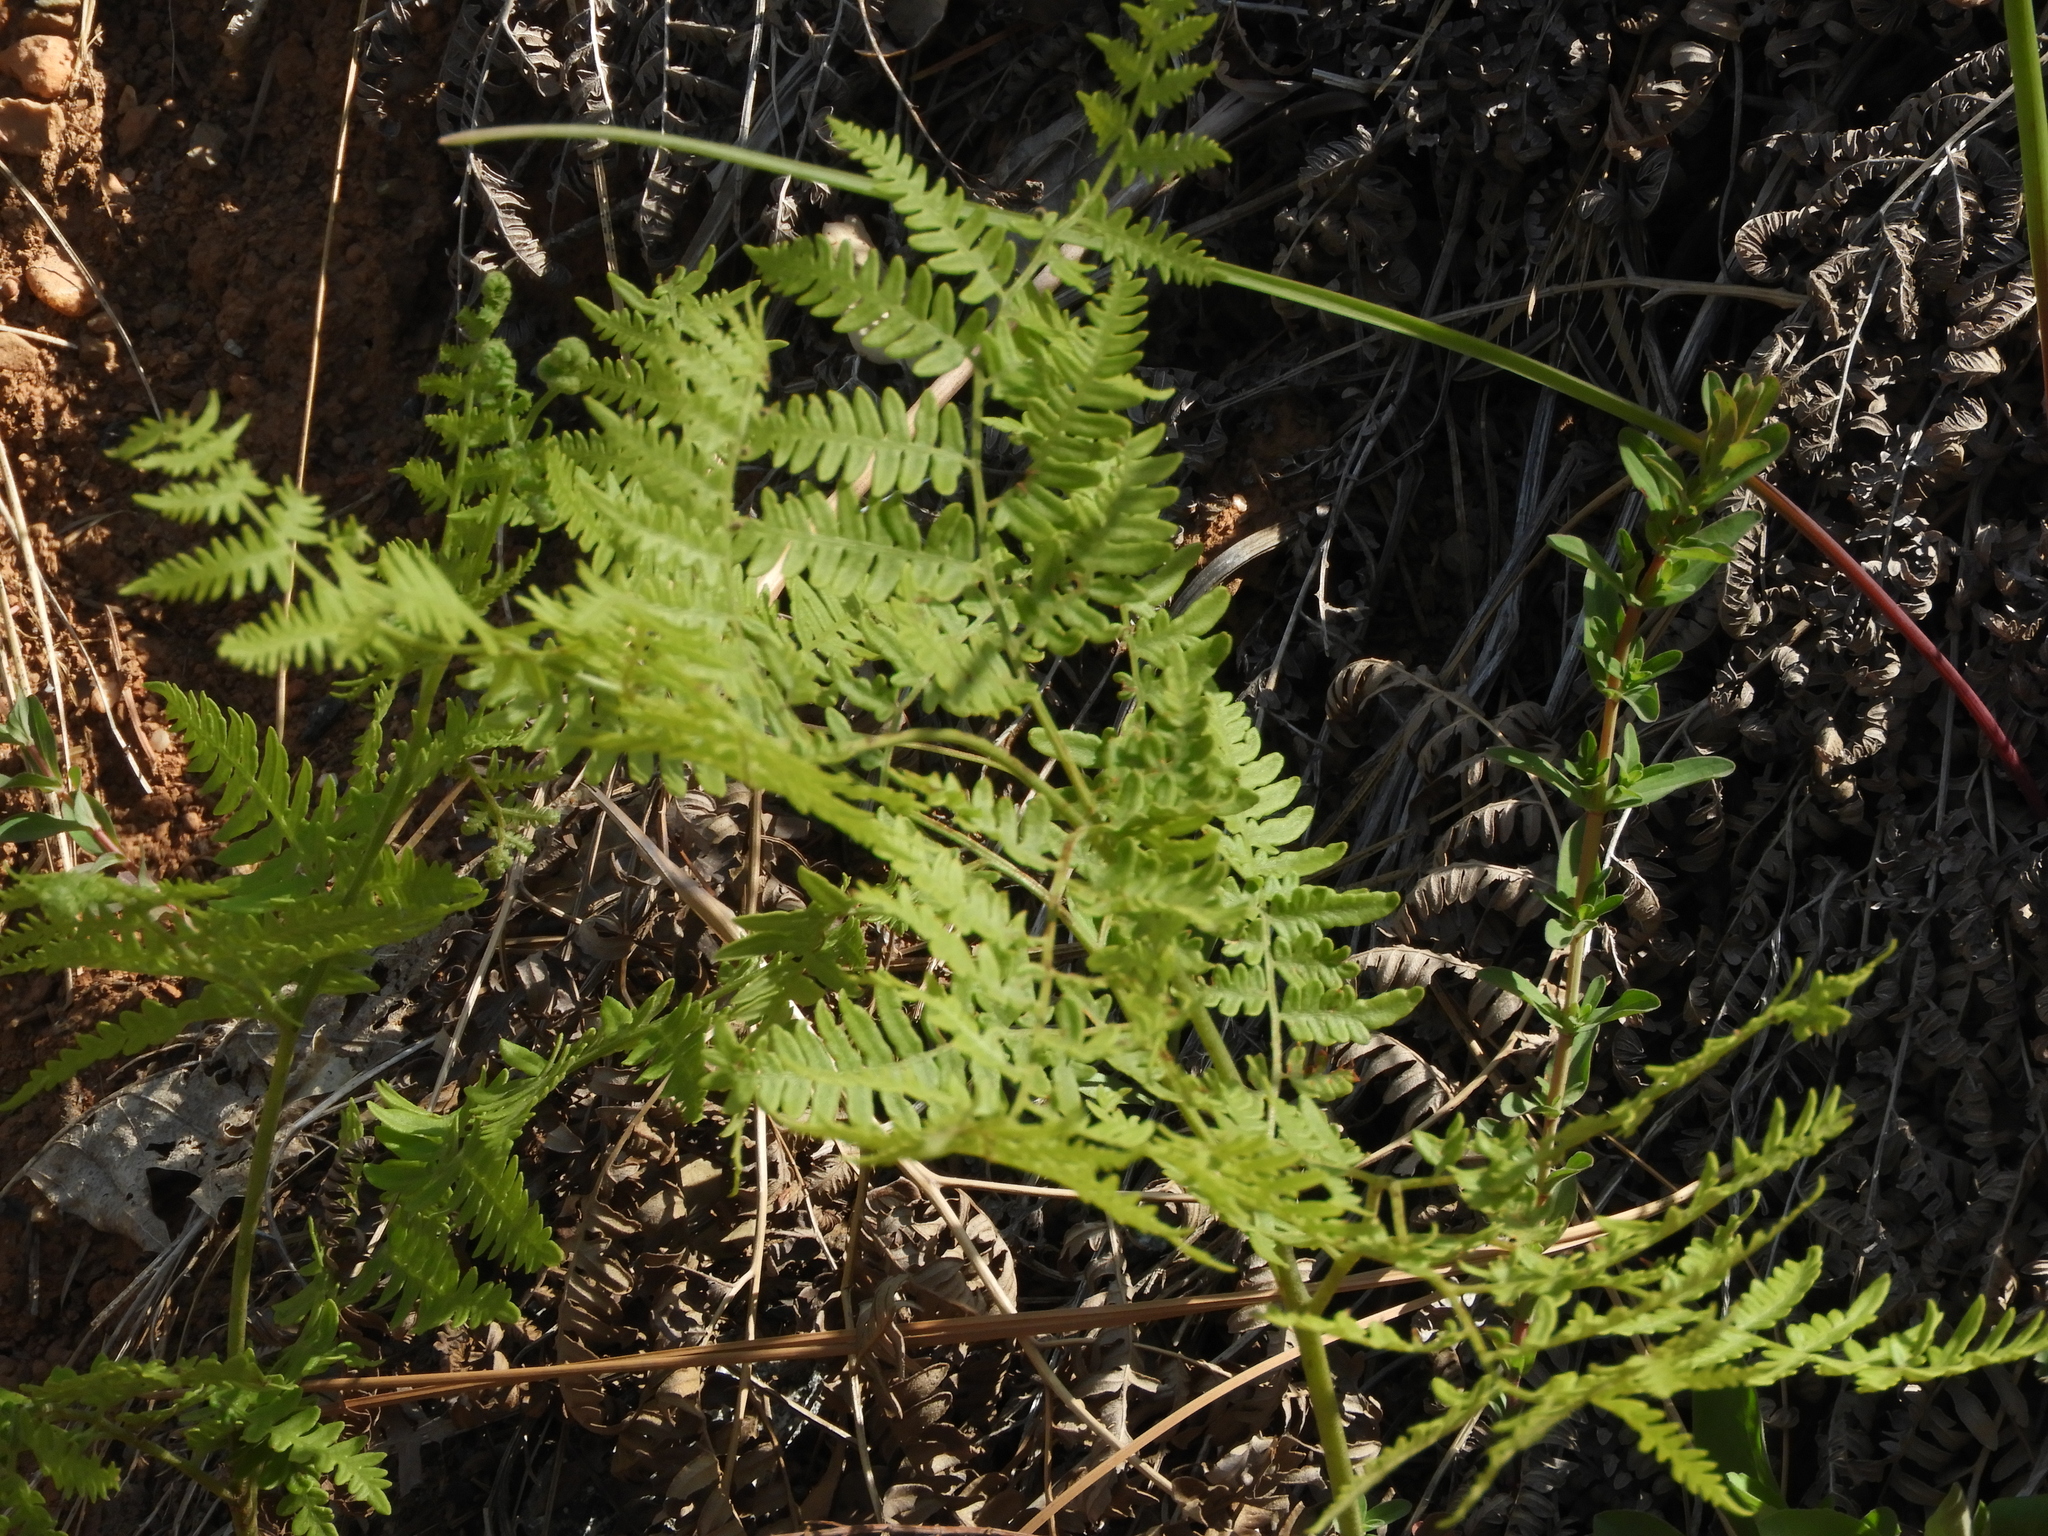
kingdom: Plantae
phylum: Tracheophyta
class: Polypodiopsida
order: Polypodiales
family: Dennstaedtiaceae
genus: Pteridium
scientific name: Pteridium aquilinum
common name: Bracken
